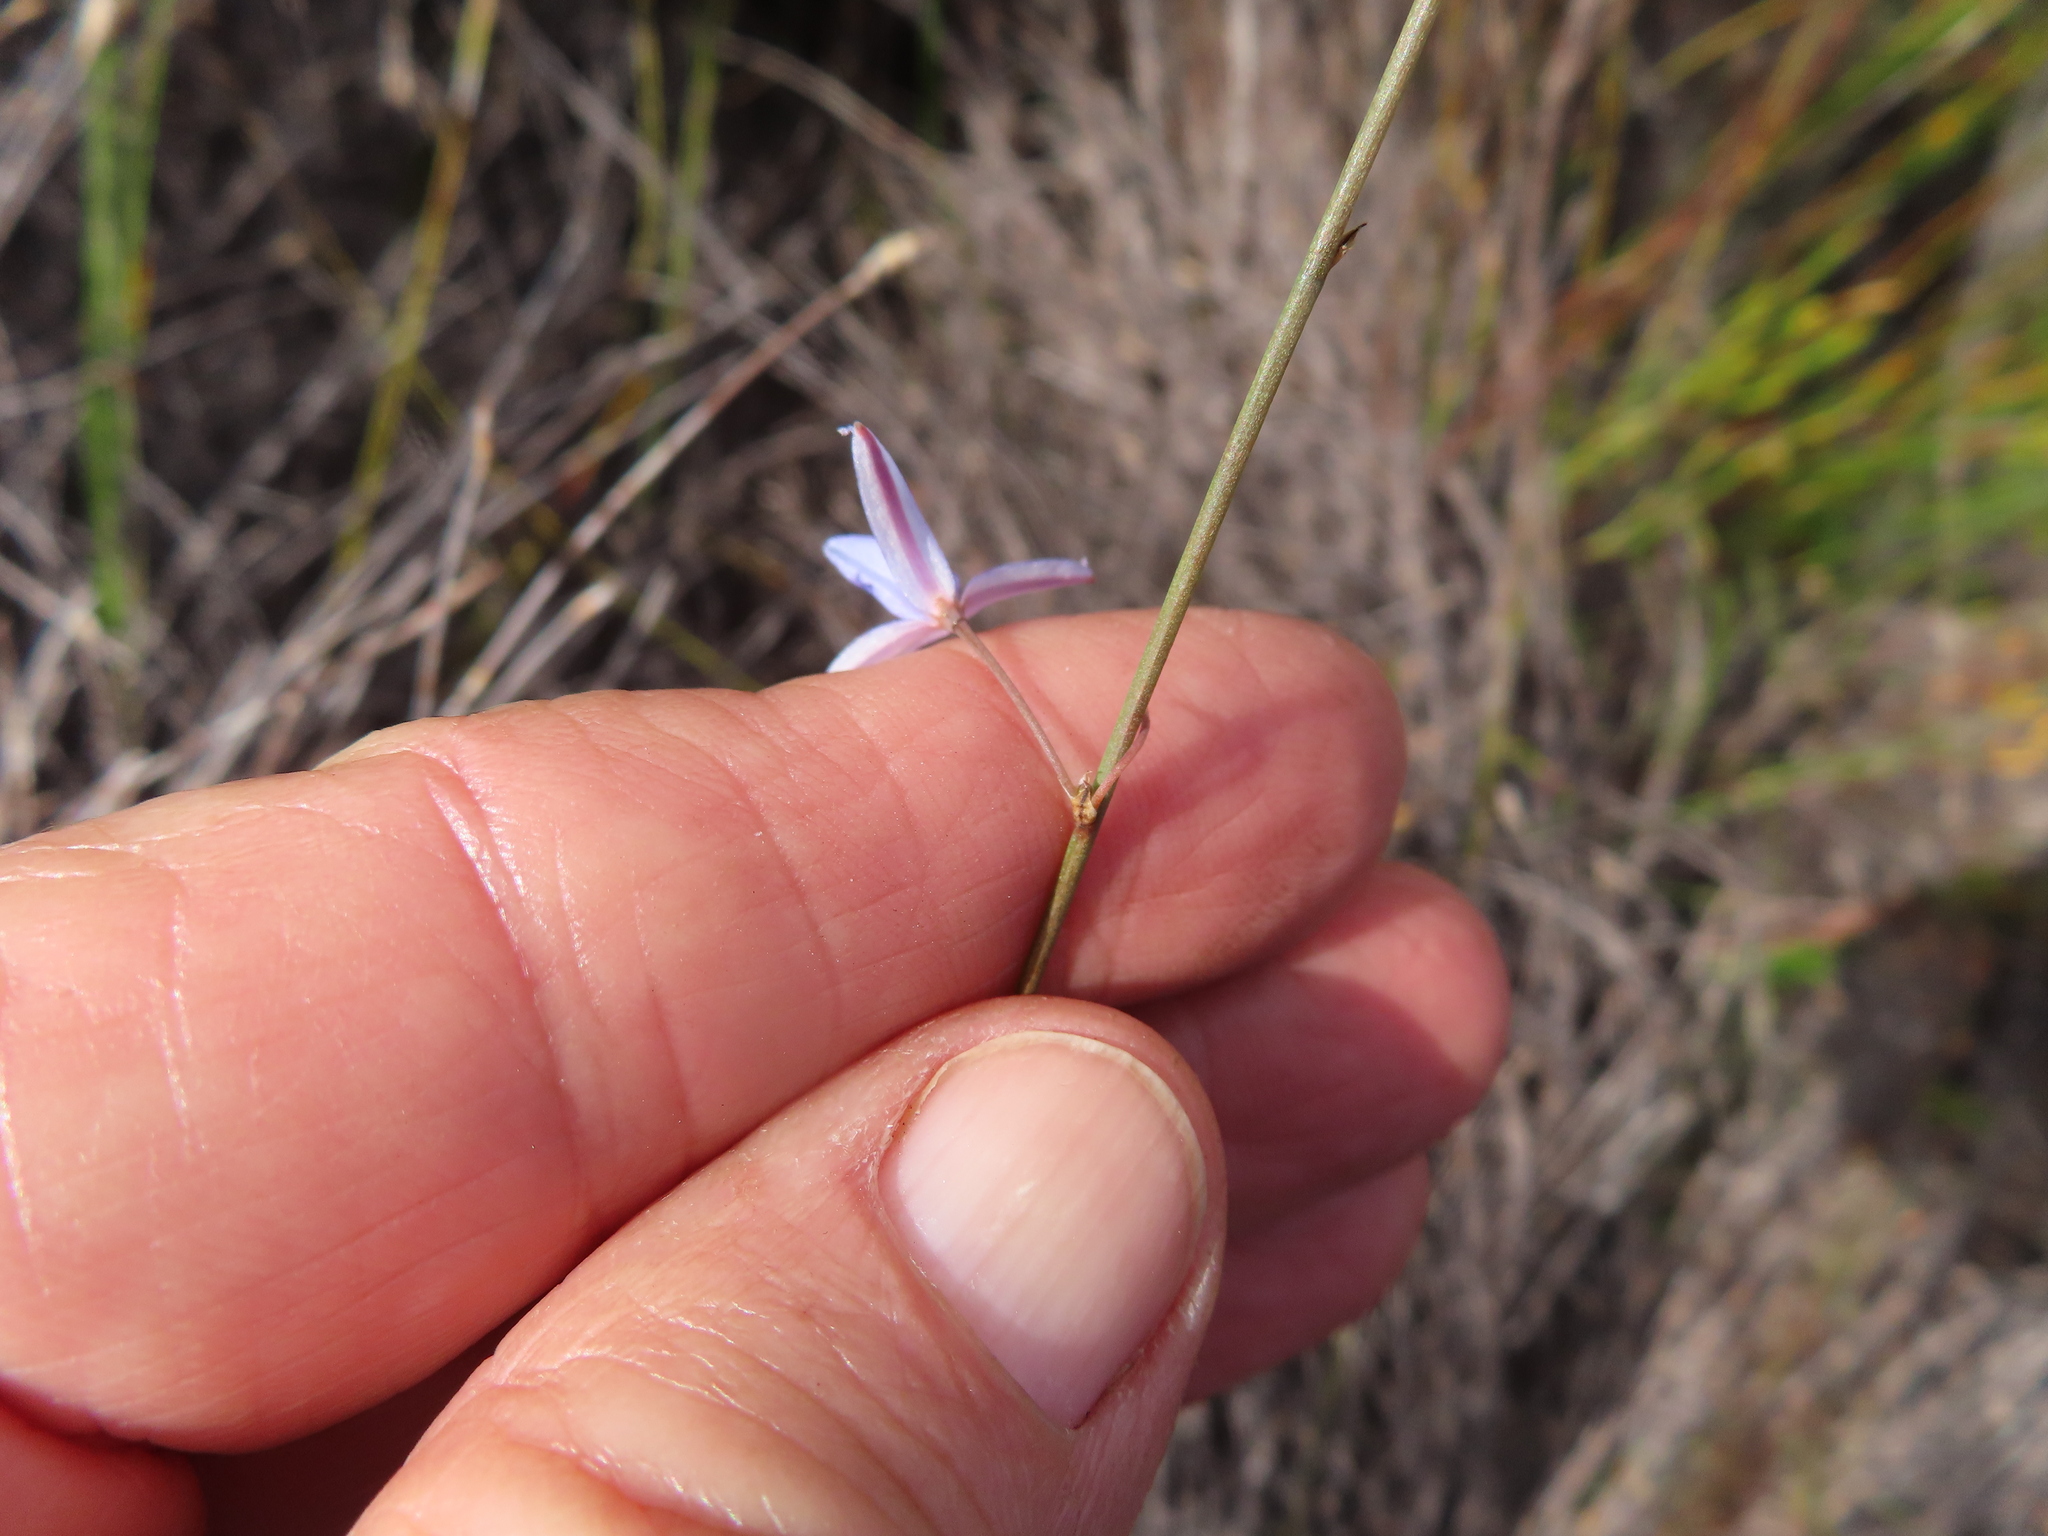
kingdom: Plantae
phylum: Tracheophyta
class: Liliopsida
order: Asparagales
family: Asphodelaceae
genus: Caesia
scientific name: Caesia contorta
